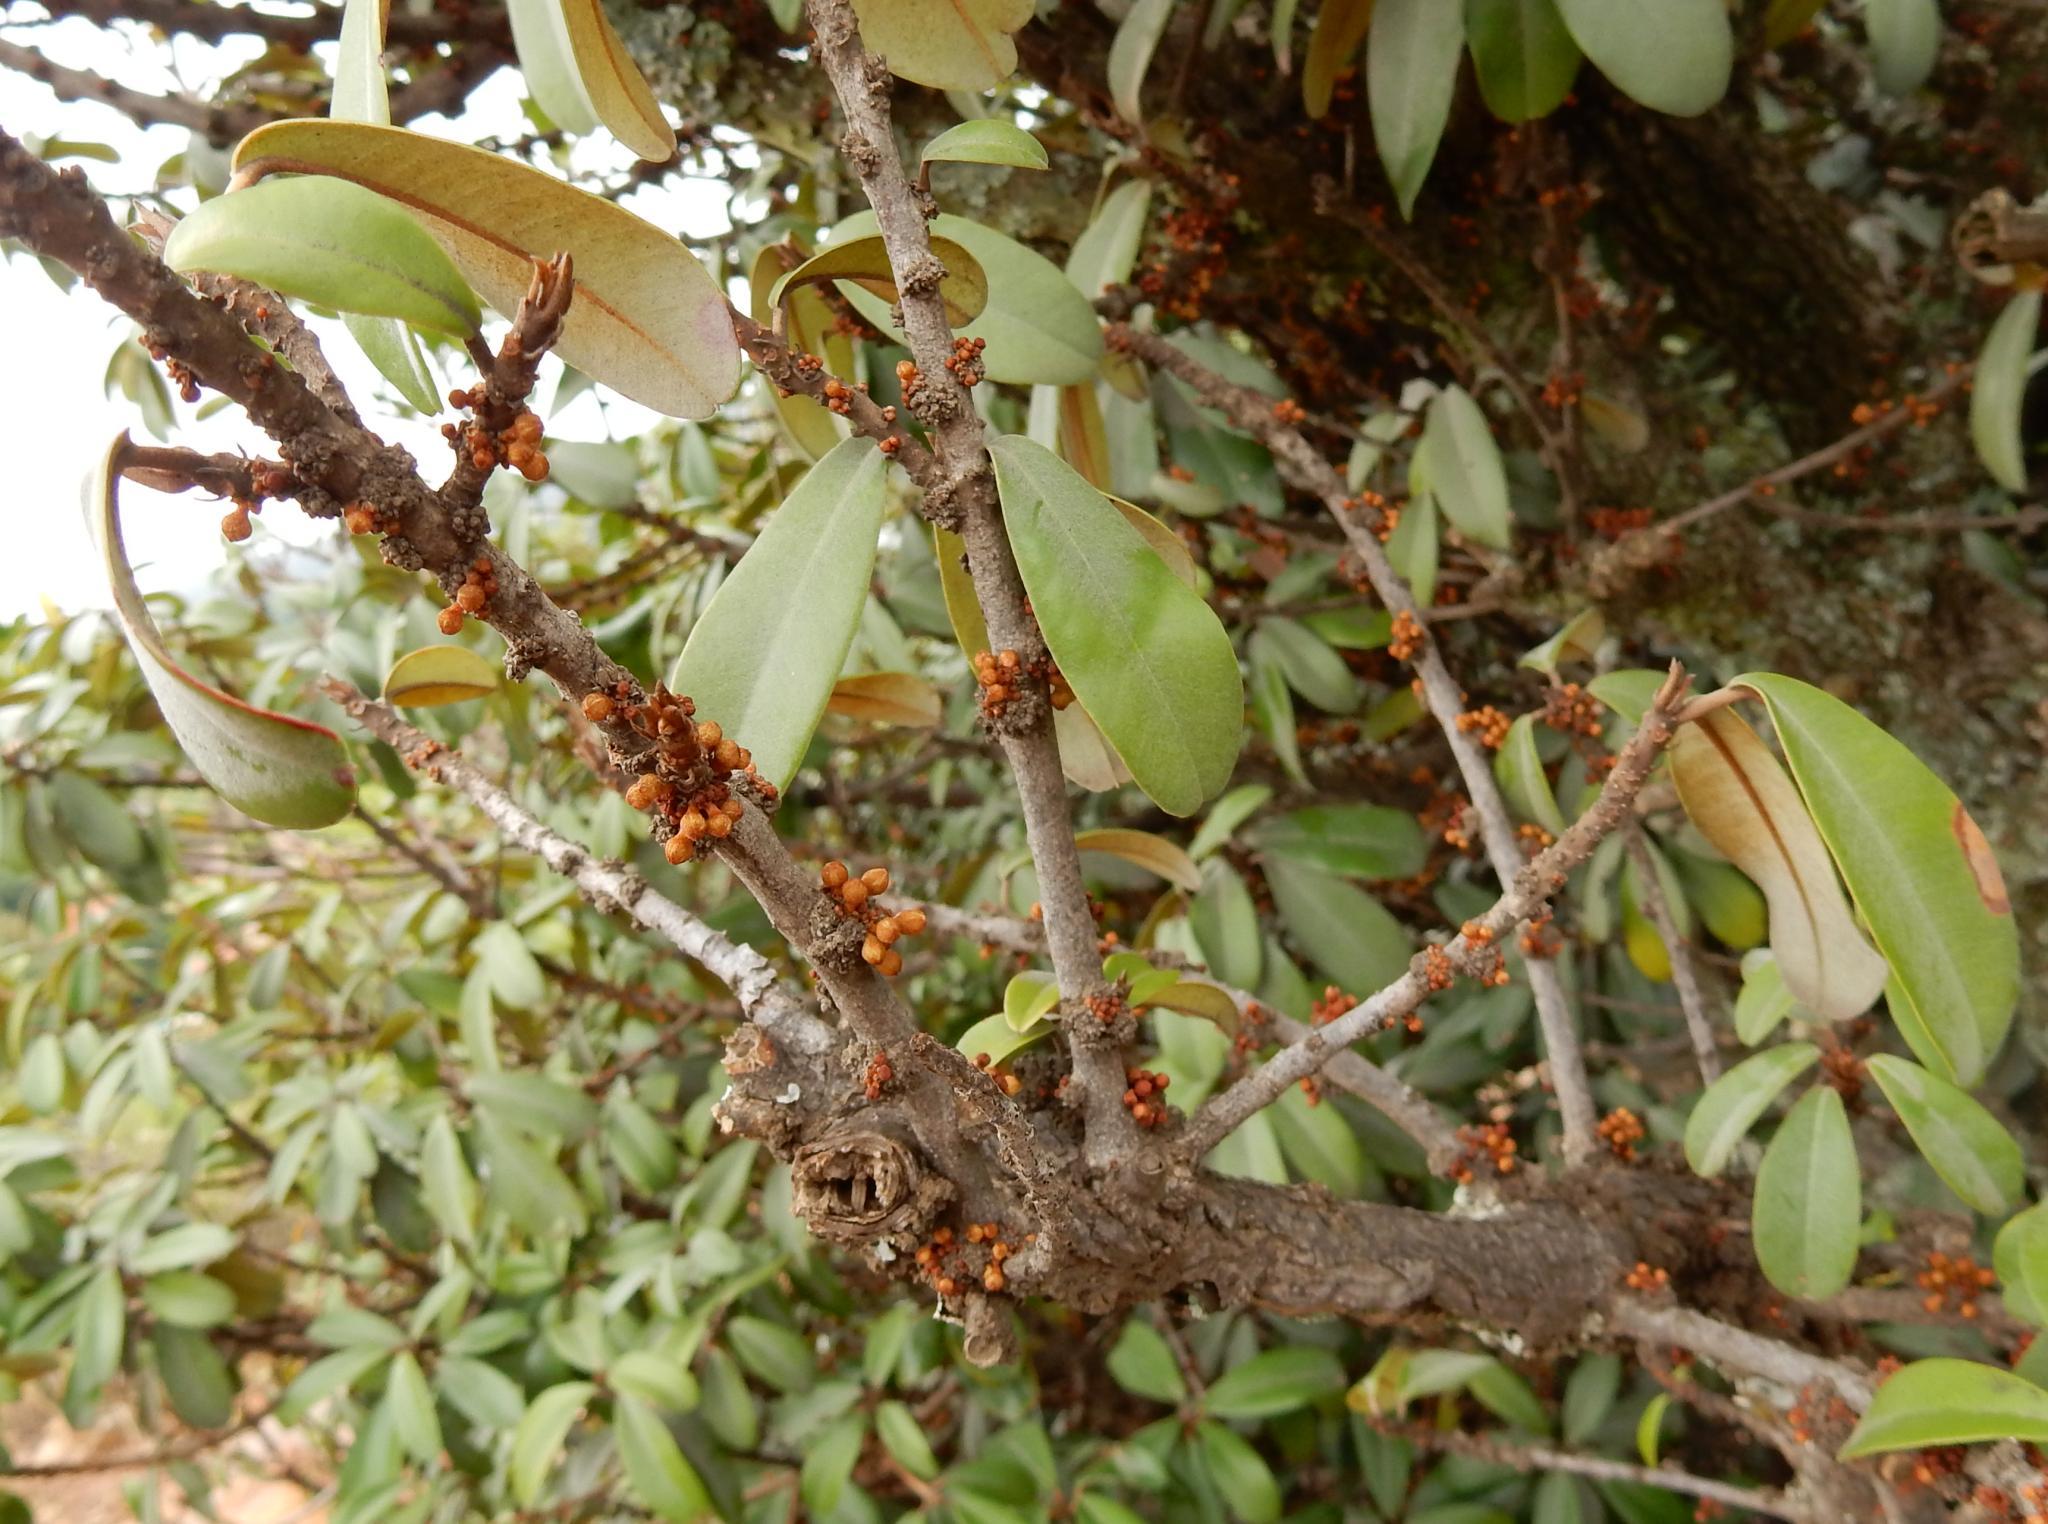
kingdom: Plantae
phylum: Tracheophyta
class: Magnoliopsida
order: Ericales
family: Sapotaceae
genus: Englerophytum
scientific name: Englerophytum magalismontanum
